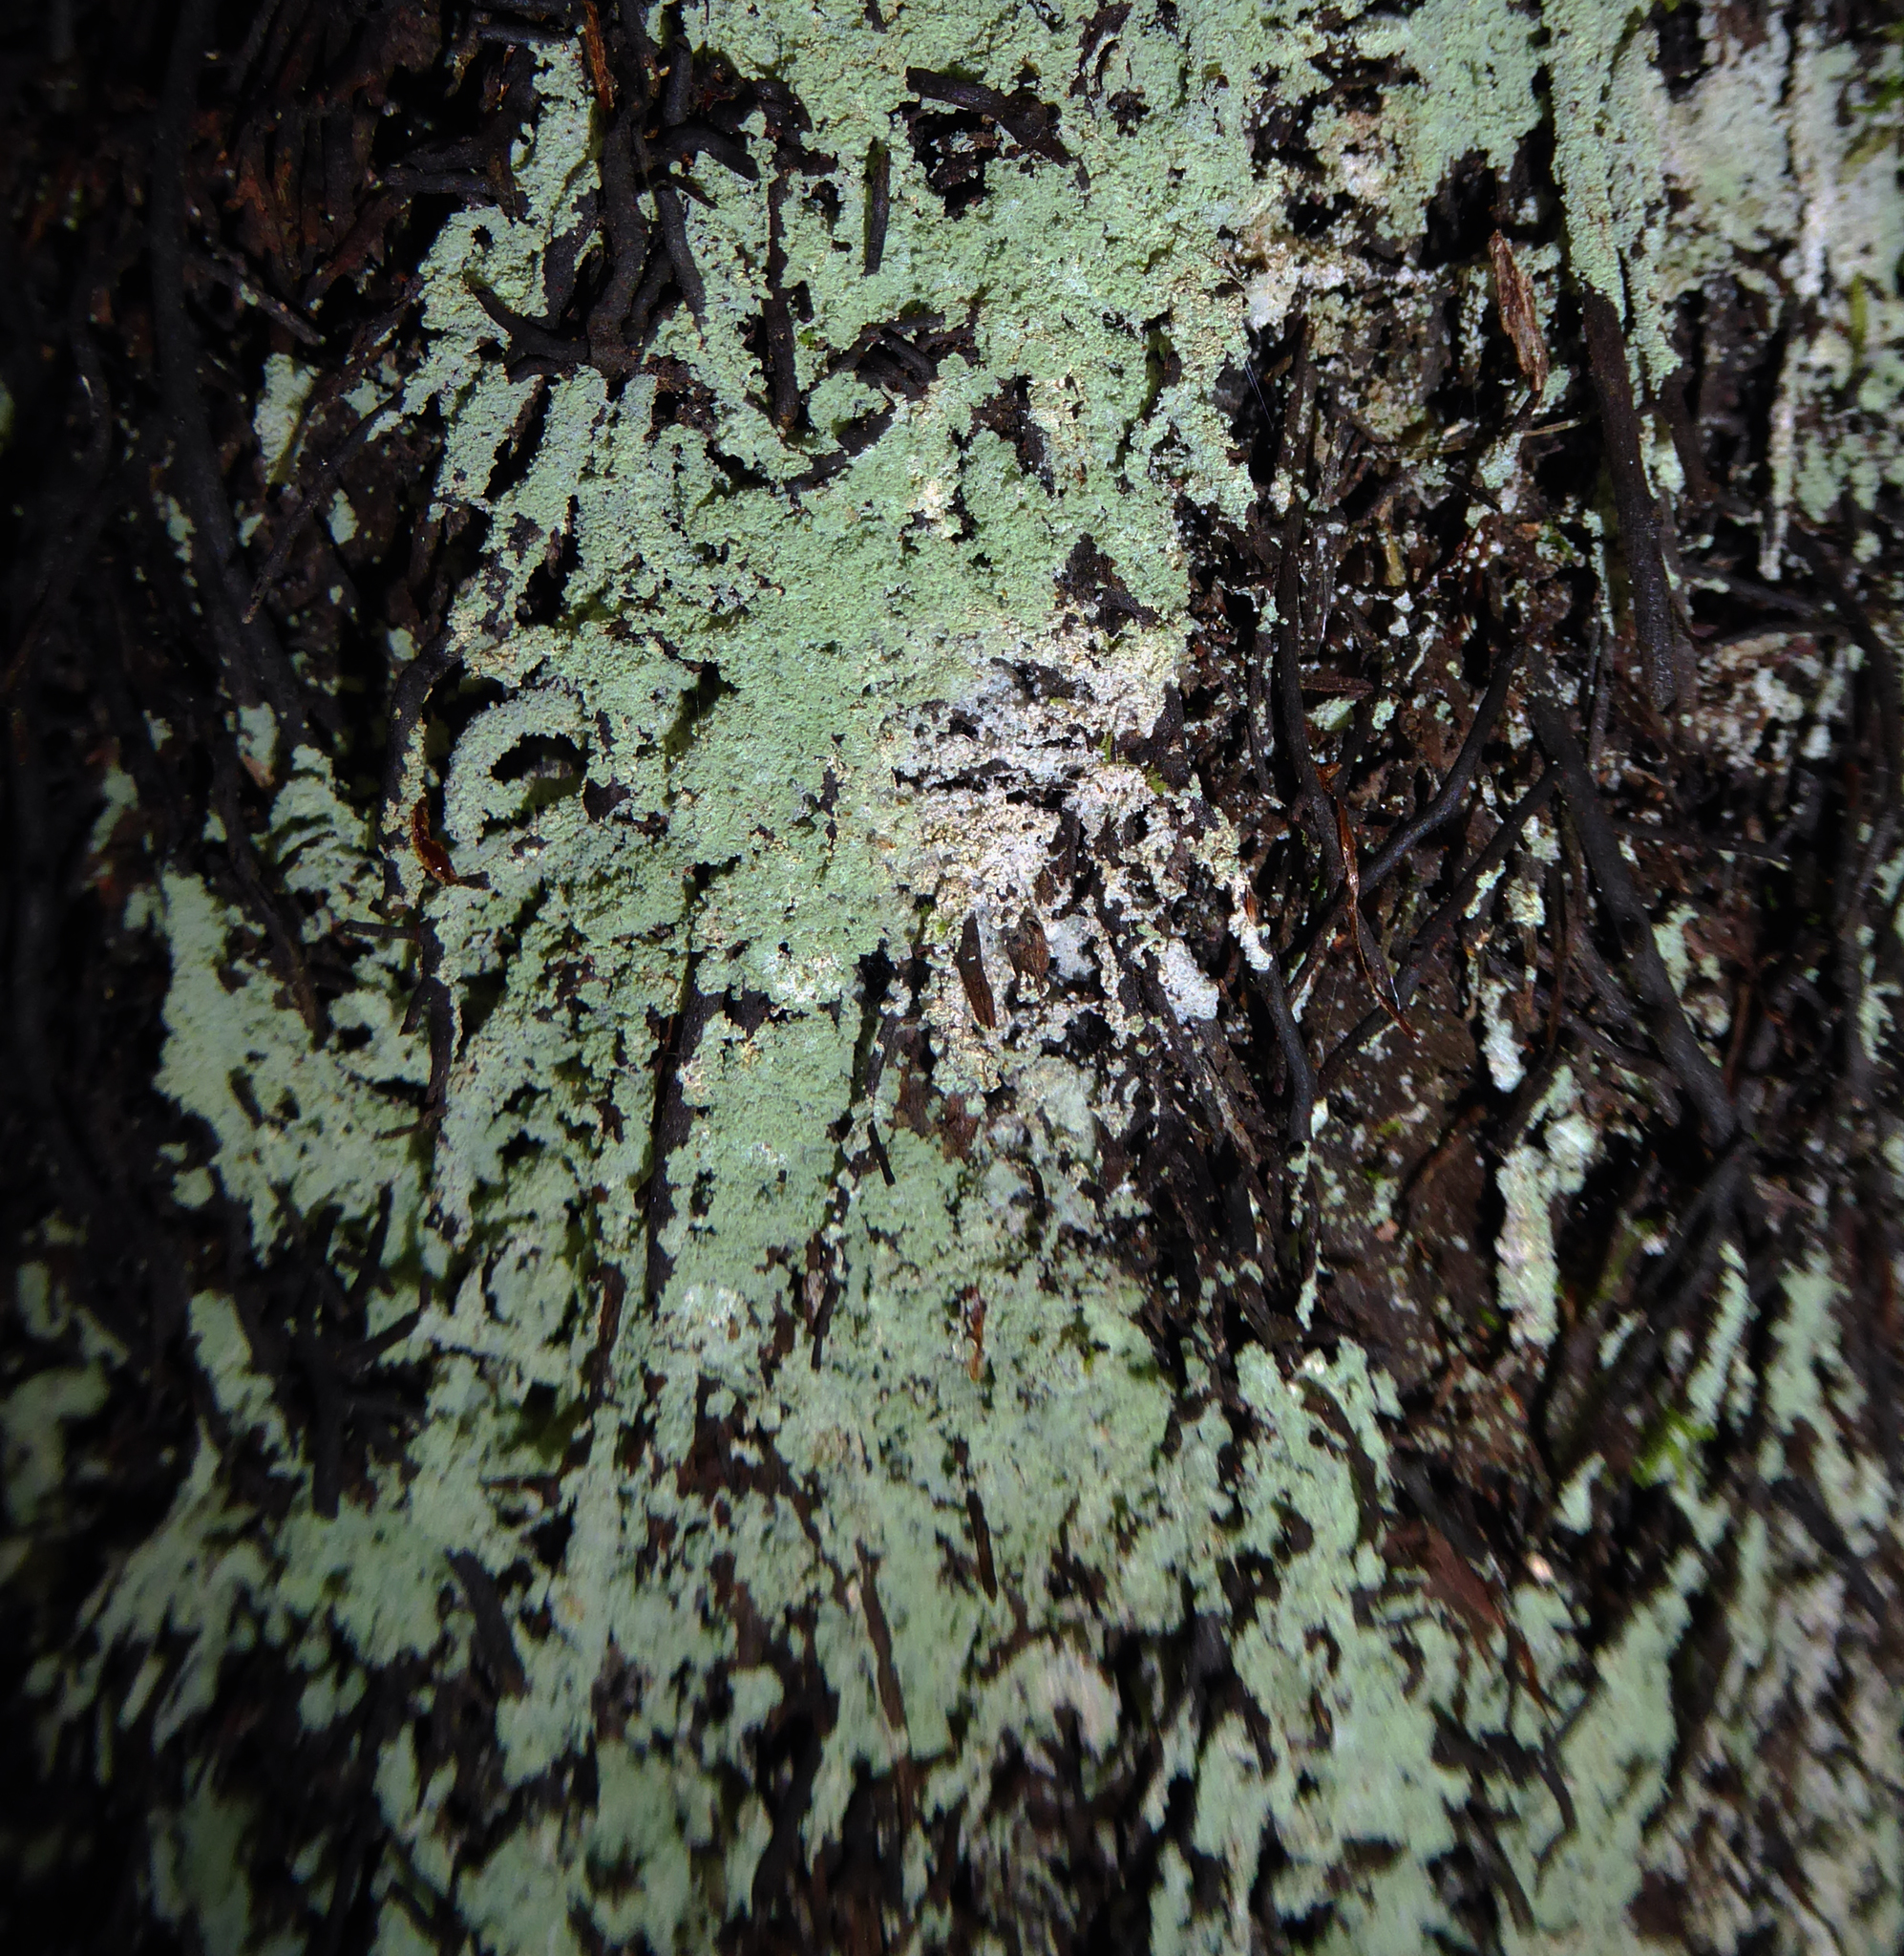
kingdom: Fungi
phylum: Ascomycota
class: Lecanoromycetes
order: Lecanorales
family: Stereocaulaceae
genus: Lepraria
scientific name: Lepraria lobificans
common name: Fluffy dust lichen
